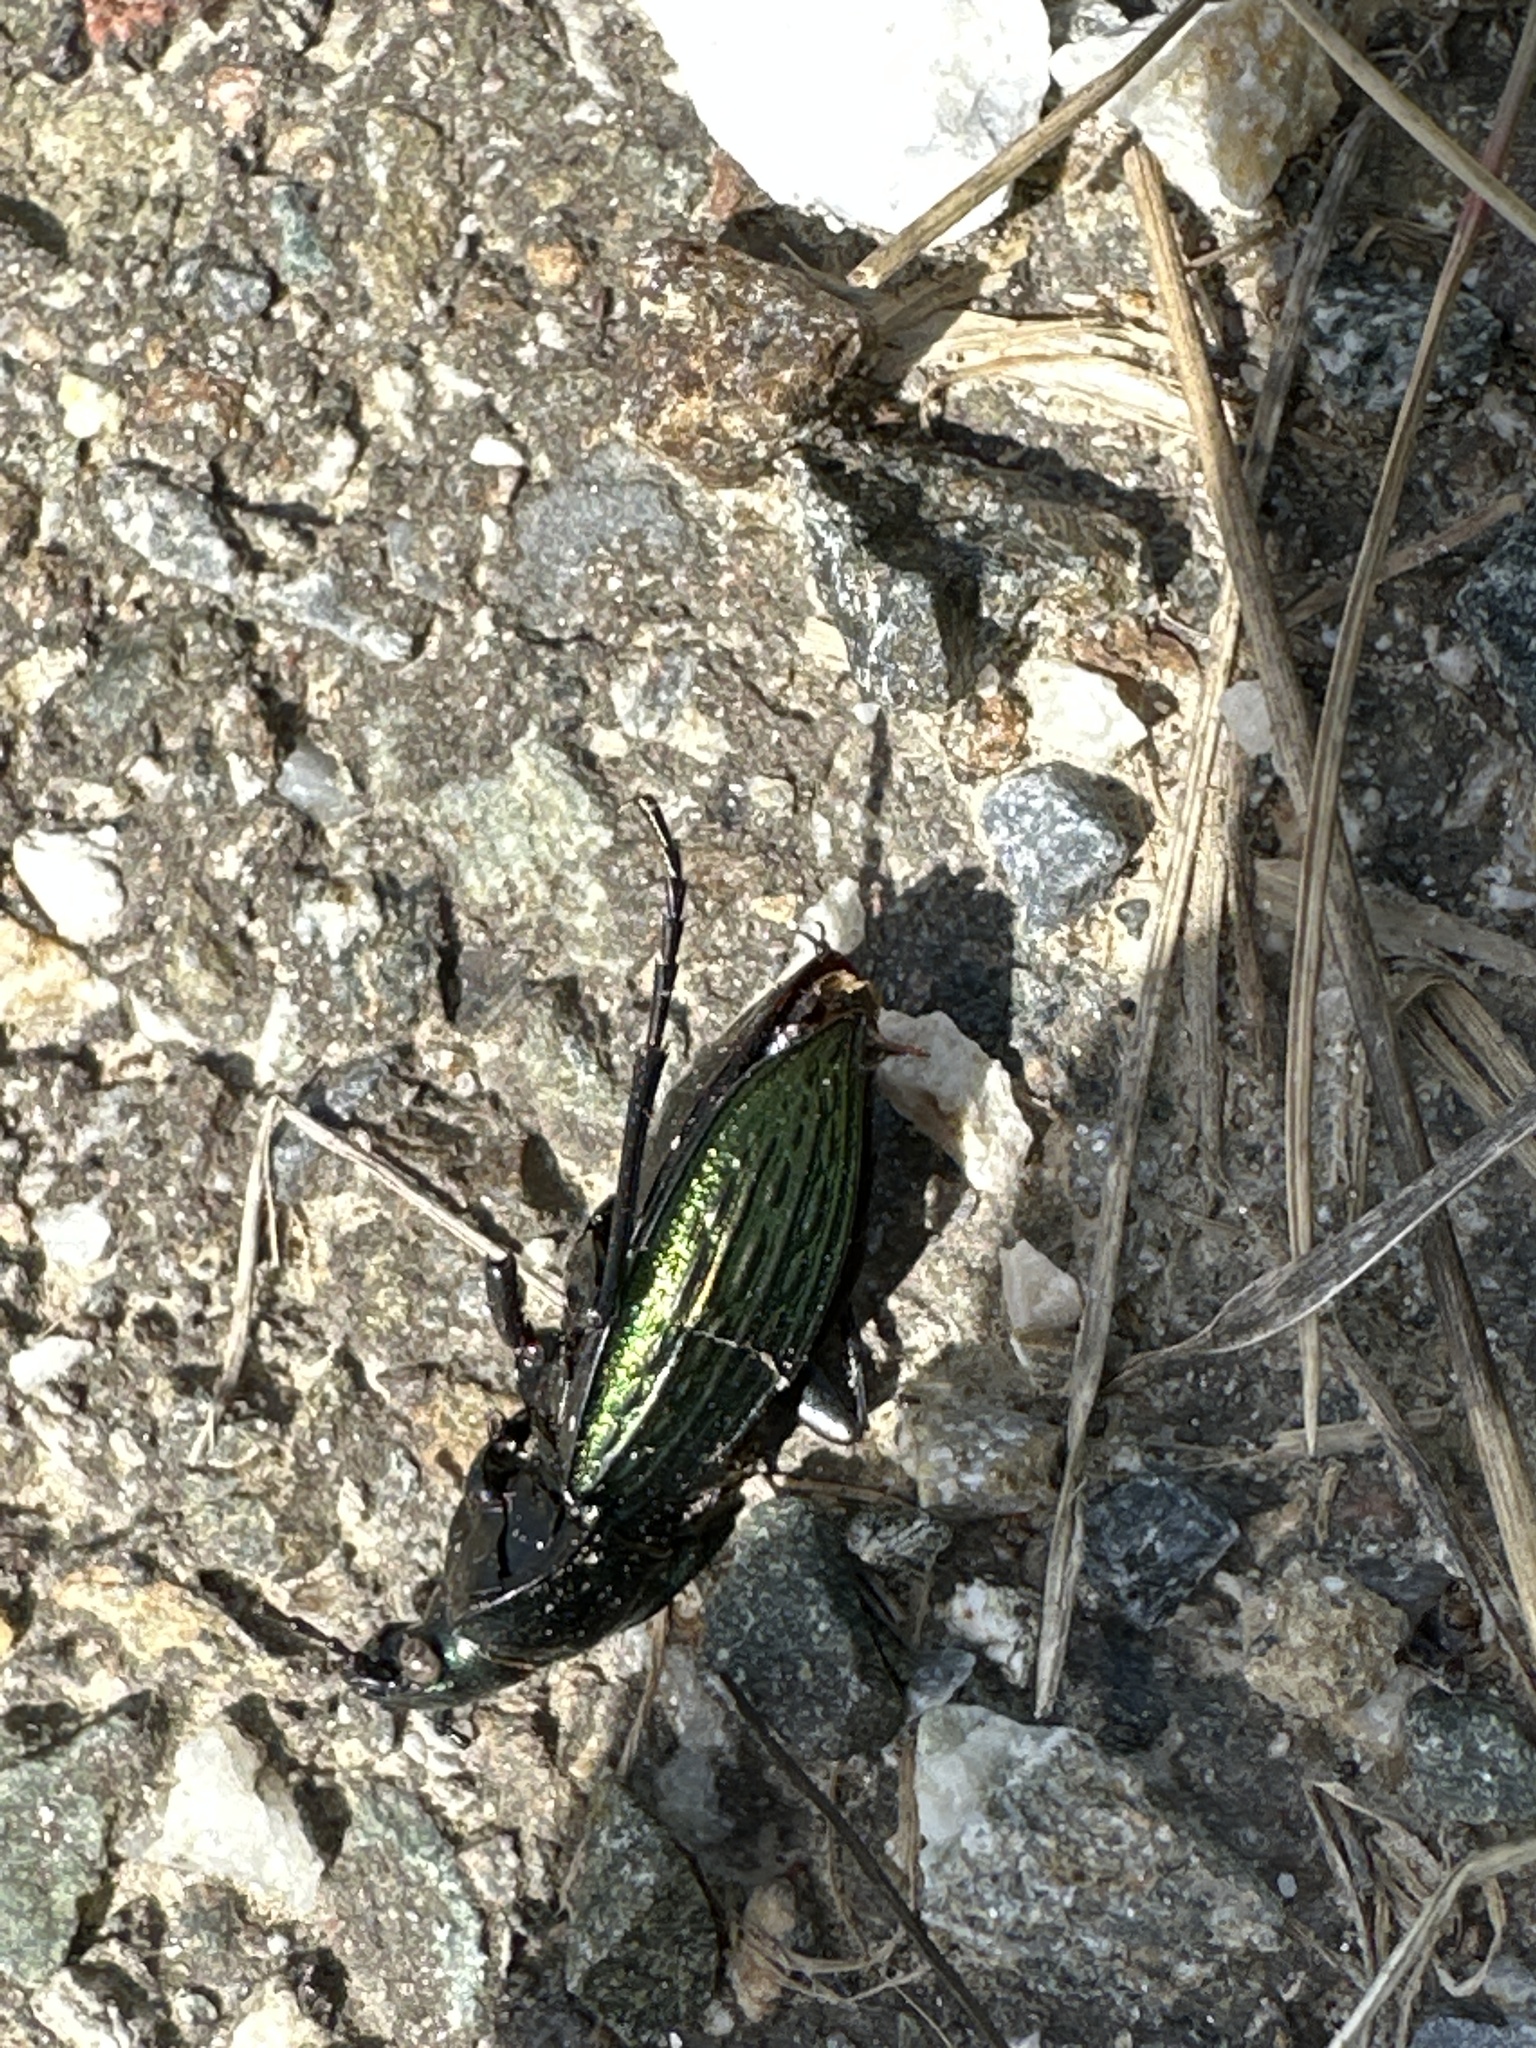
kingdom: Animalia
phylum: Arthropoda
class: Insecta
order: Coleoptera
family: Carabidae
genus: Carabus
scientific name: Carabus ulrichii
